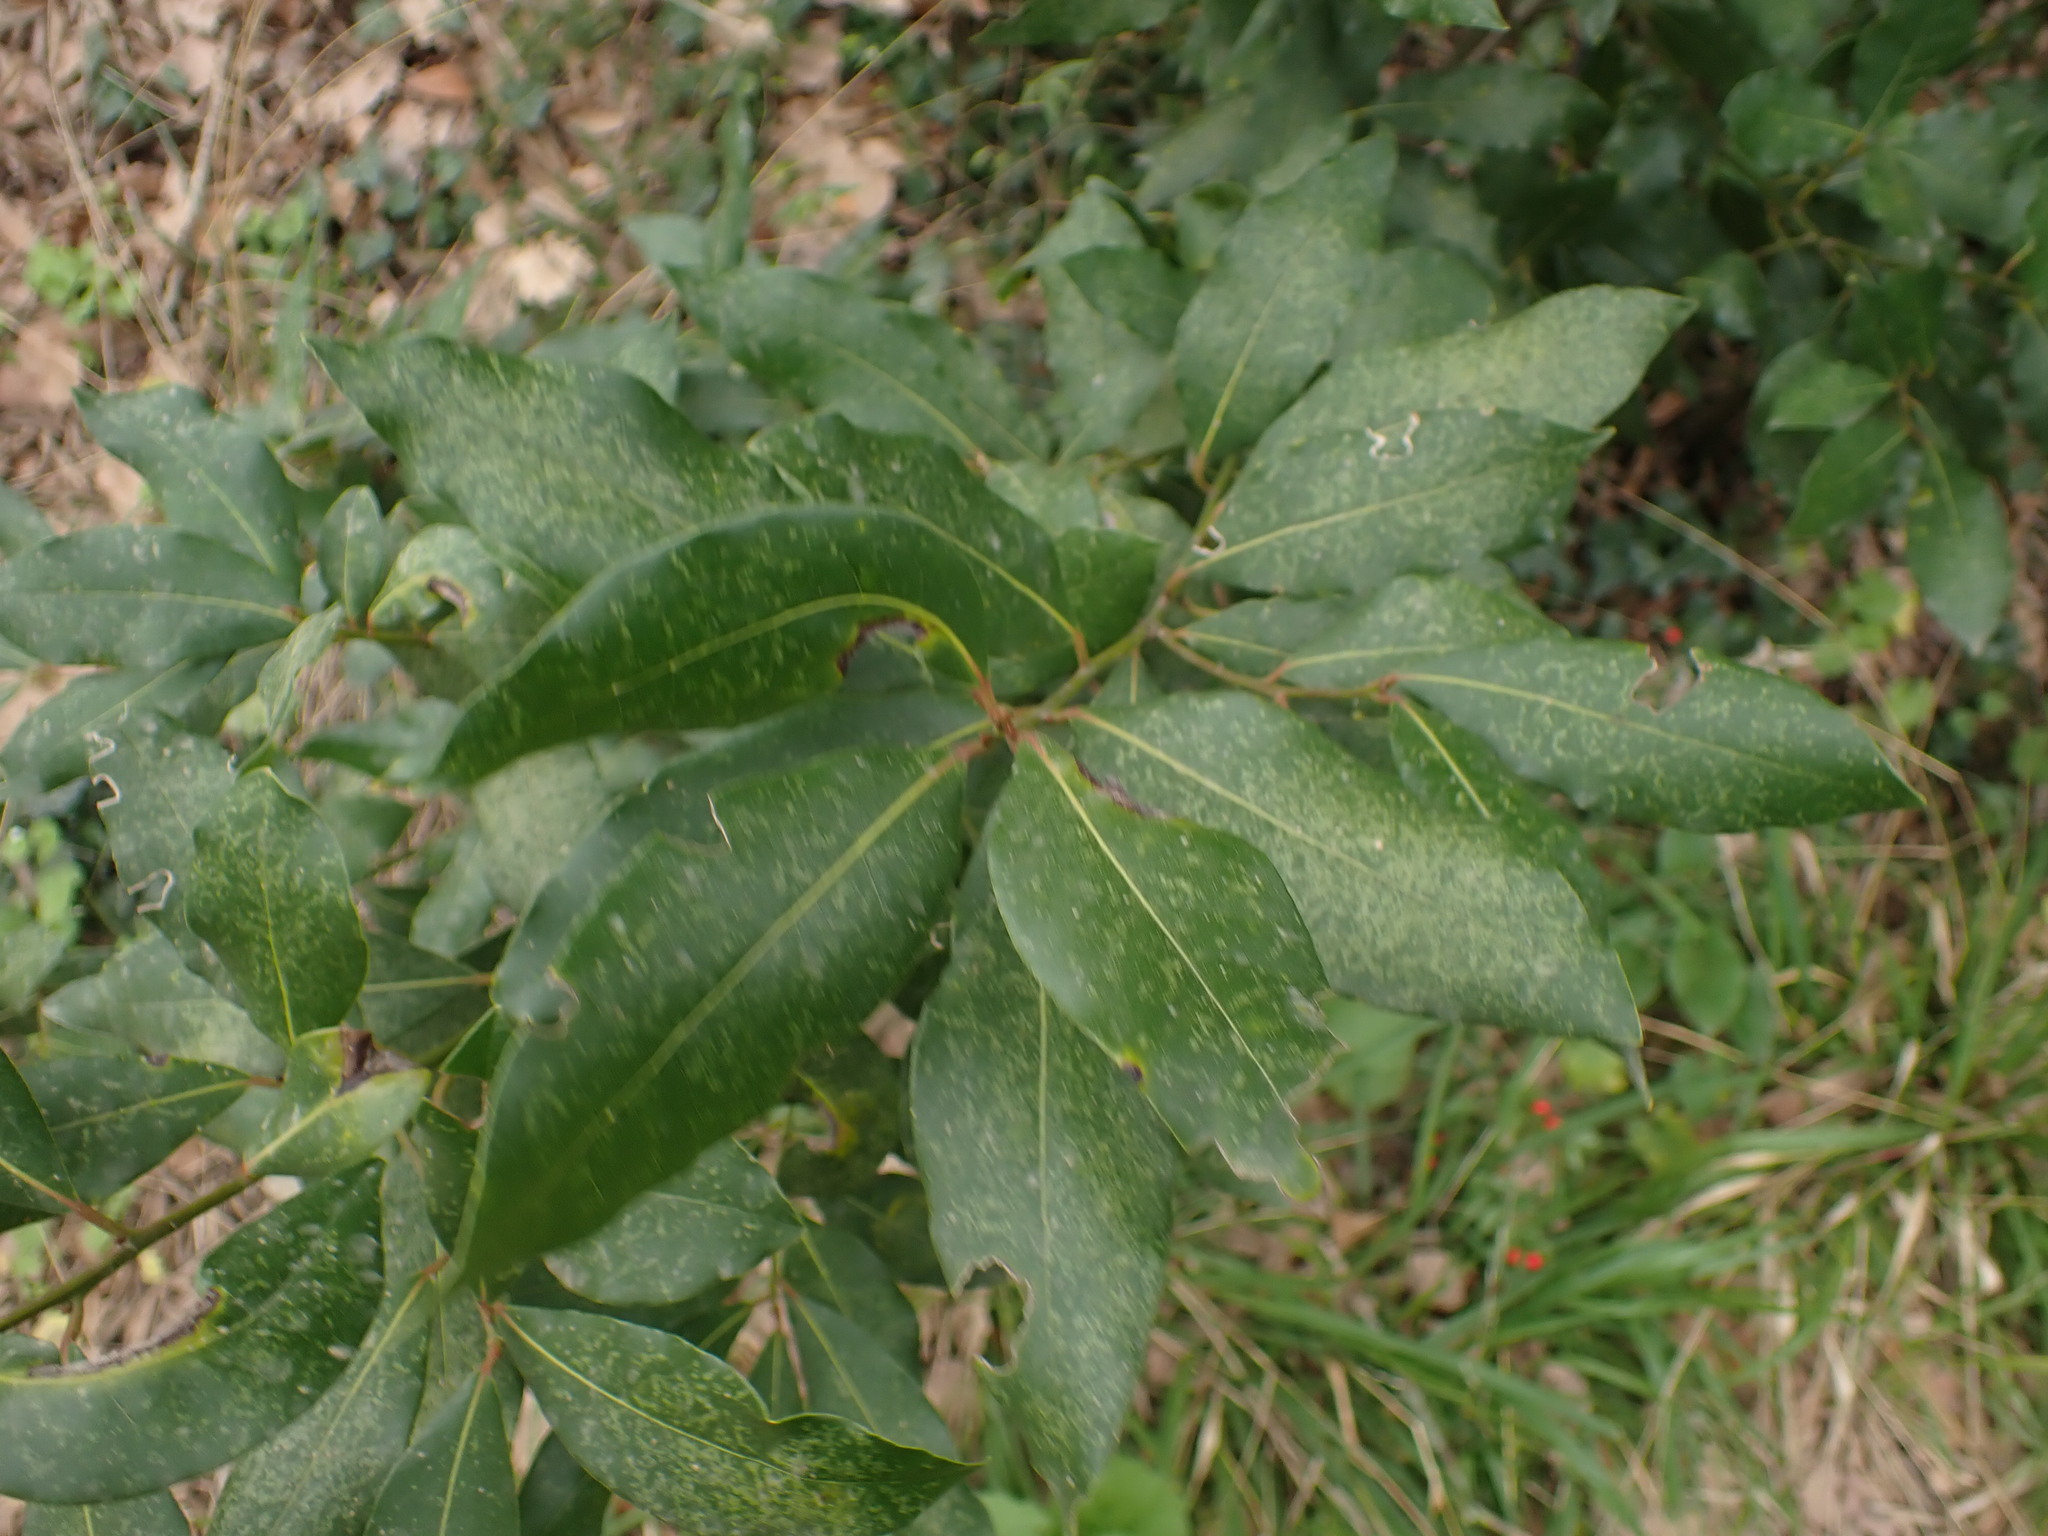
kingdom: Plantae
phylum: Tracheophyta
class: Magnoliopsida
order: Laurales
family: Lauraceae
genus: Laurus
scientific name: Laurus nobilis
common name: Bay
